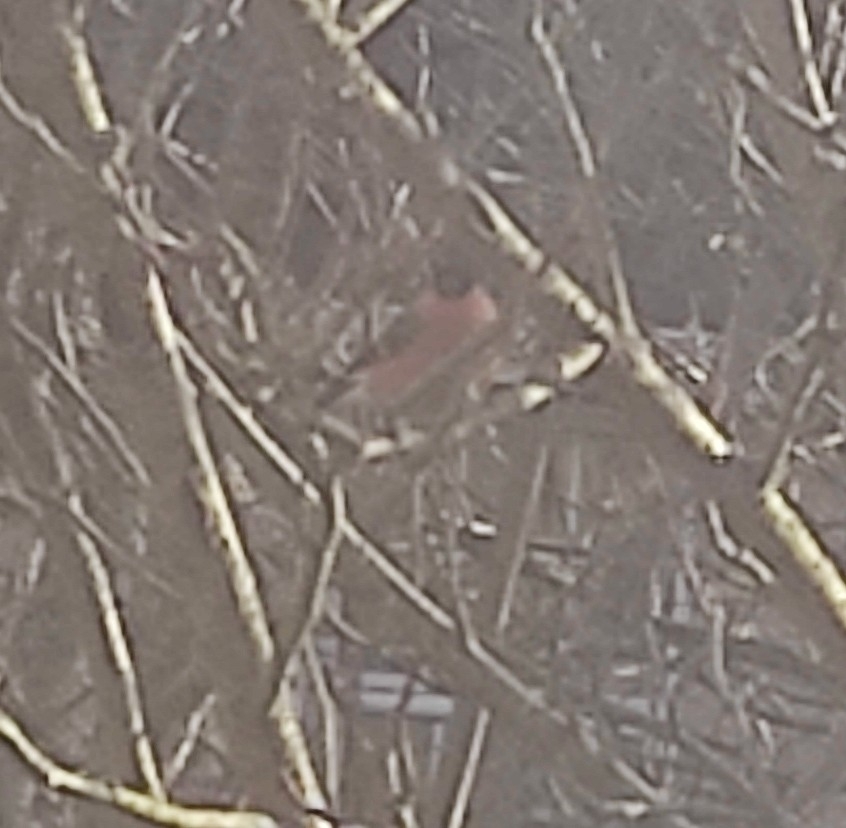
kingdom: Animalia
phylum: Chordata
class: Aves
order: Passeriformes
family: Fringillidae
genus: Pyrrhula
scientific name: Pyrrhula pyrrhula
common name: Eurasian bullfinch
